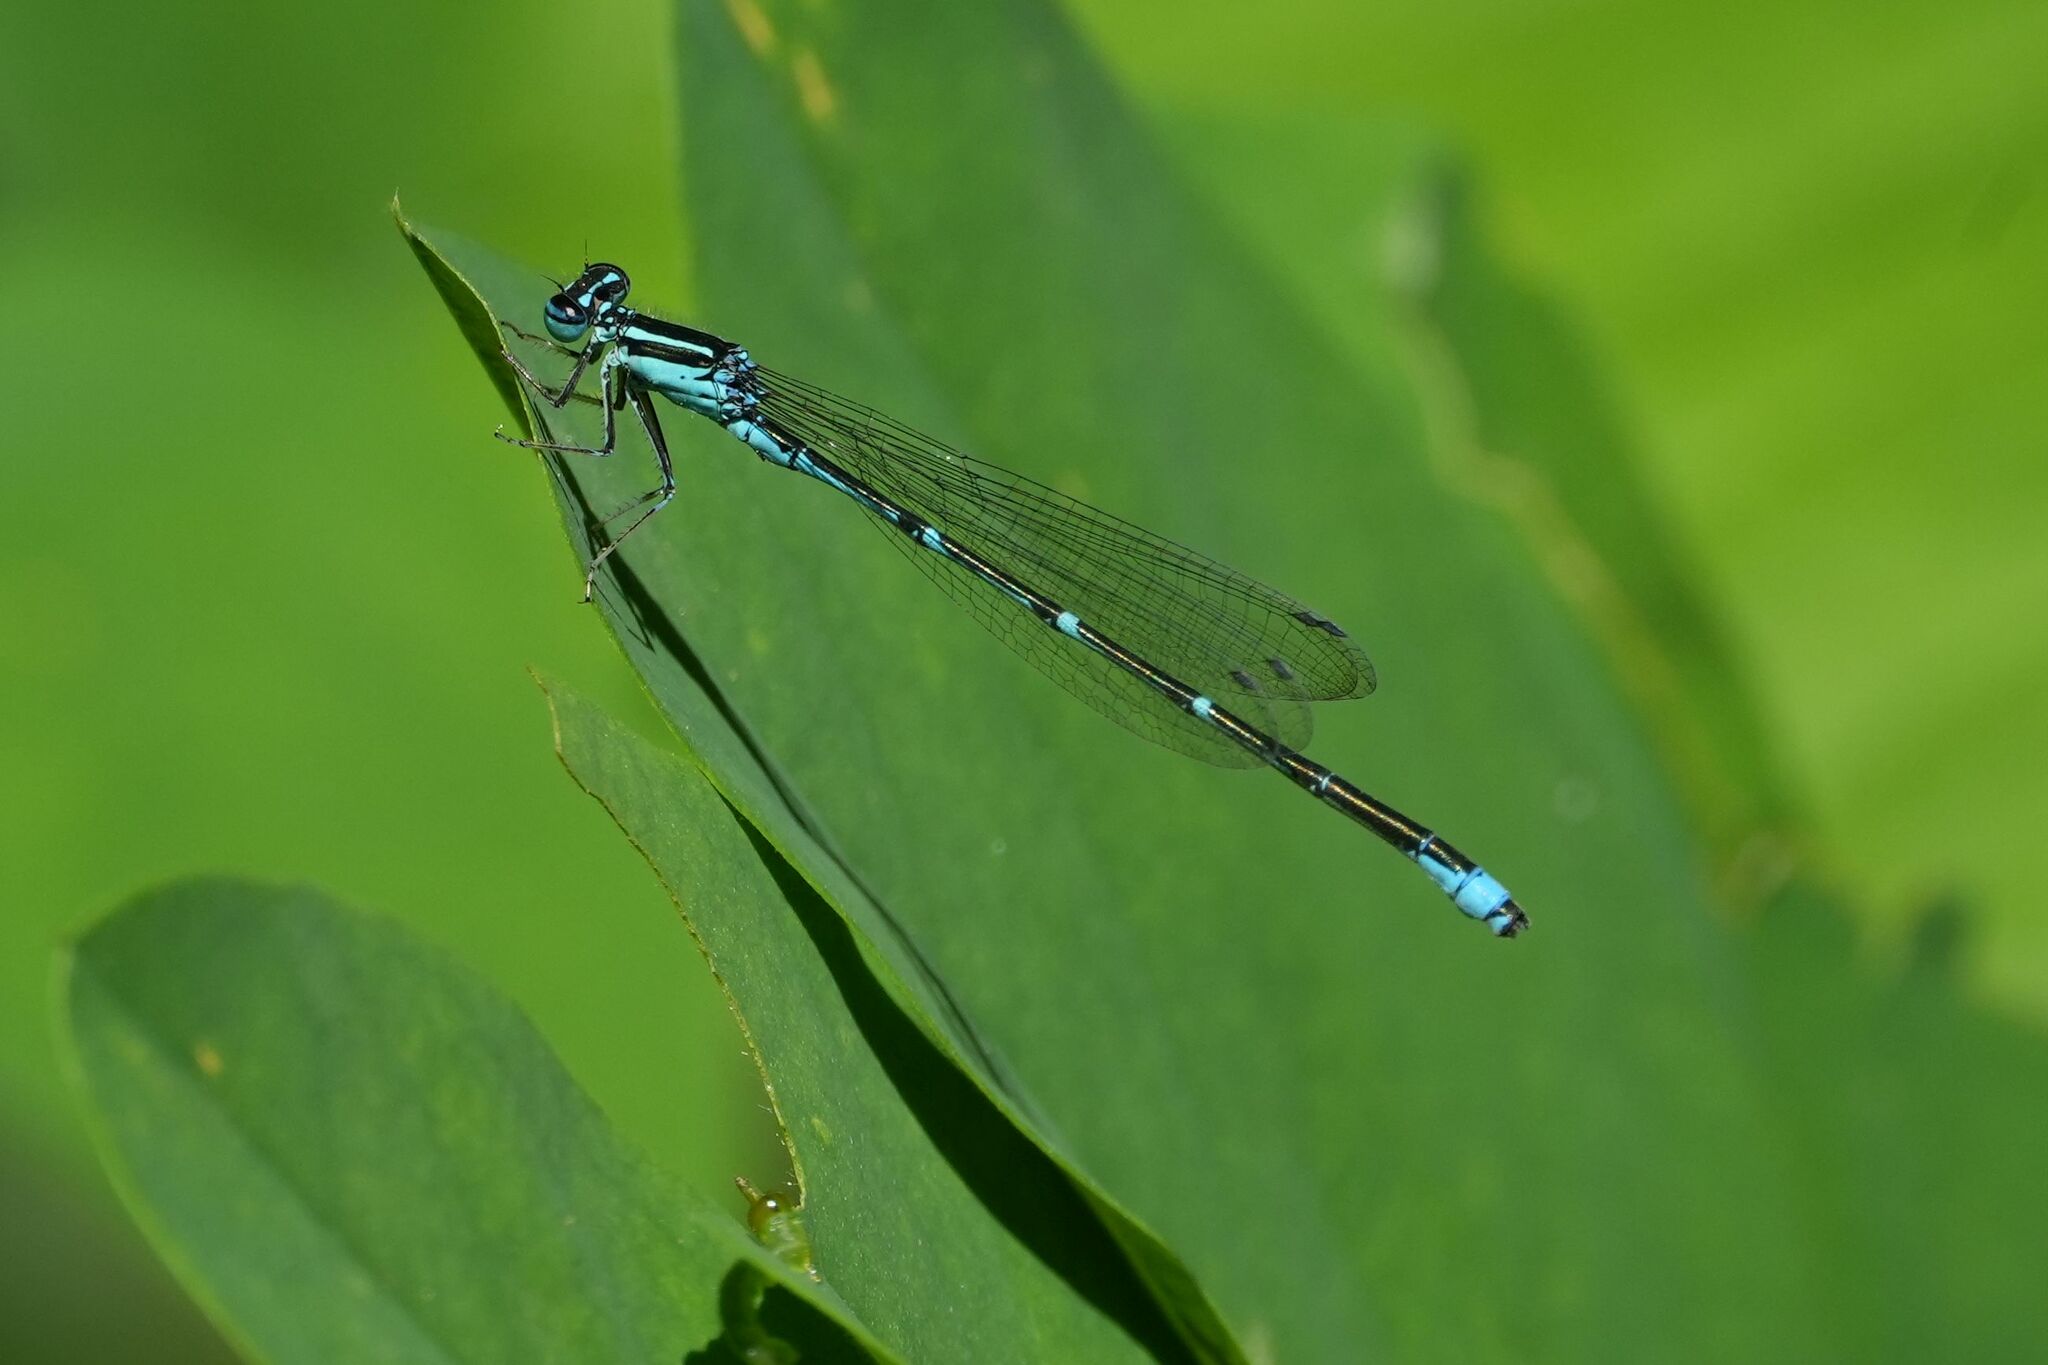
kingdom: Animalia
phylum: Arthropoda
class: Insecta
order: Odonata
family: Coenagrionidae
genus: Enallagma
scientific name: Enallagma exsulans
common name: Stream bluet
